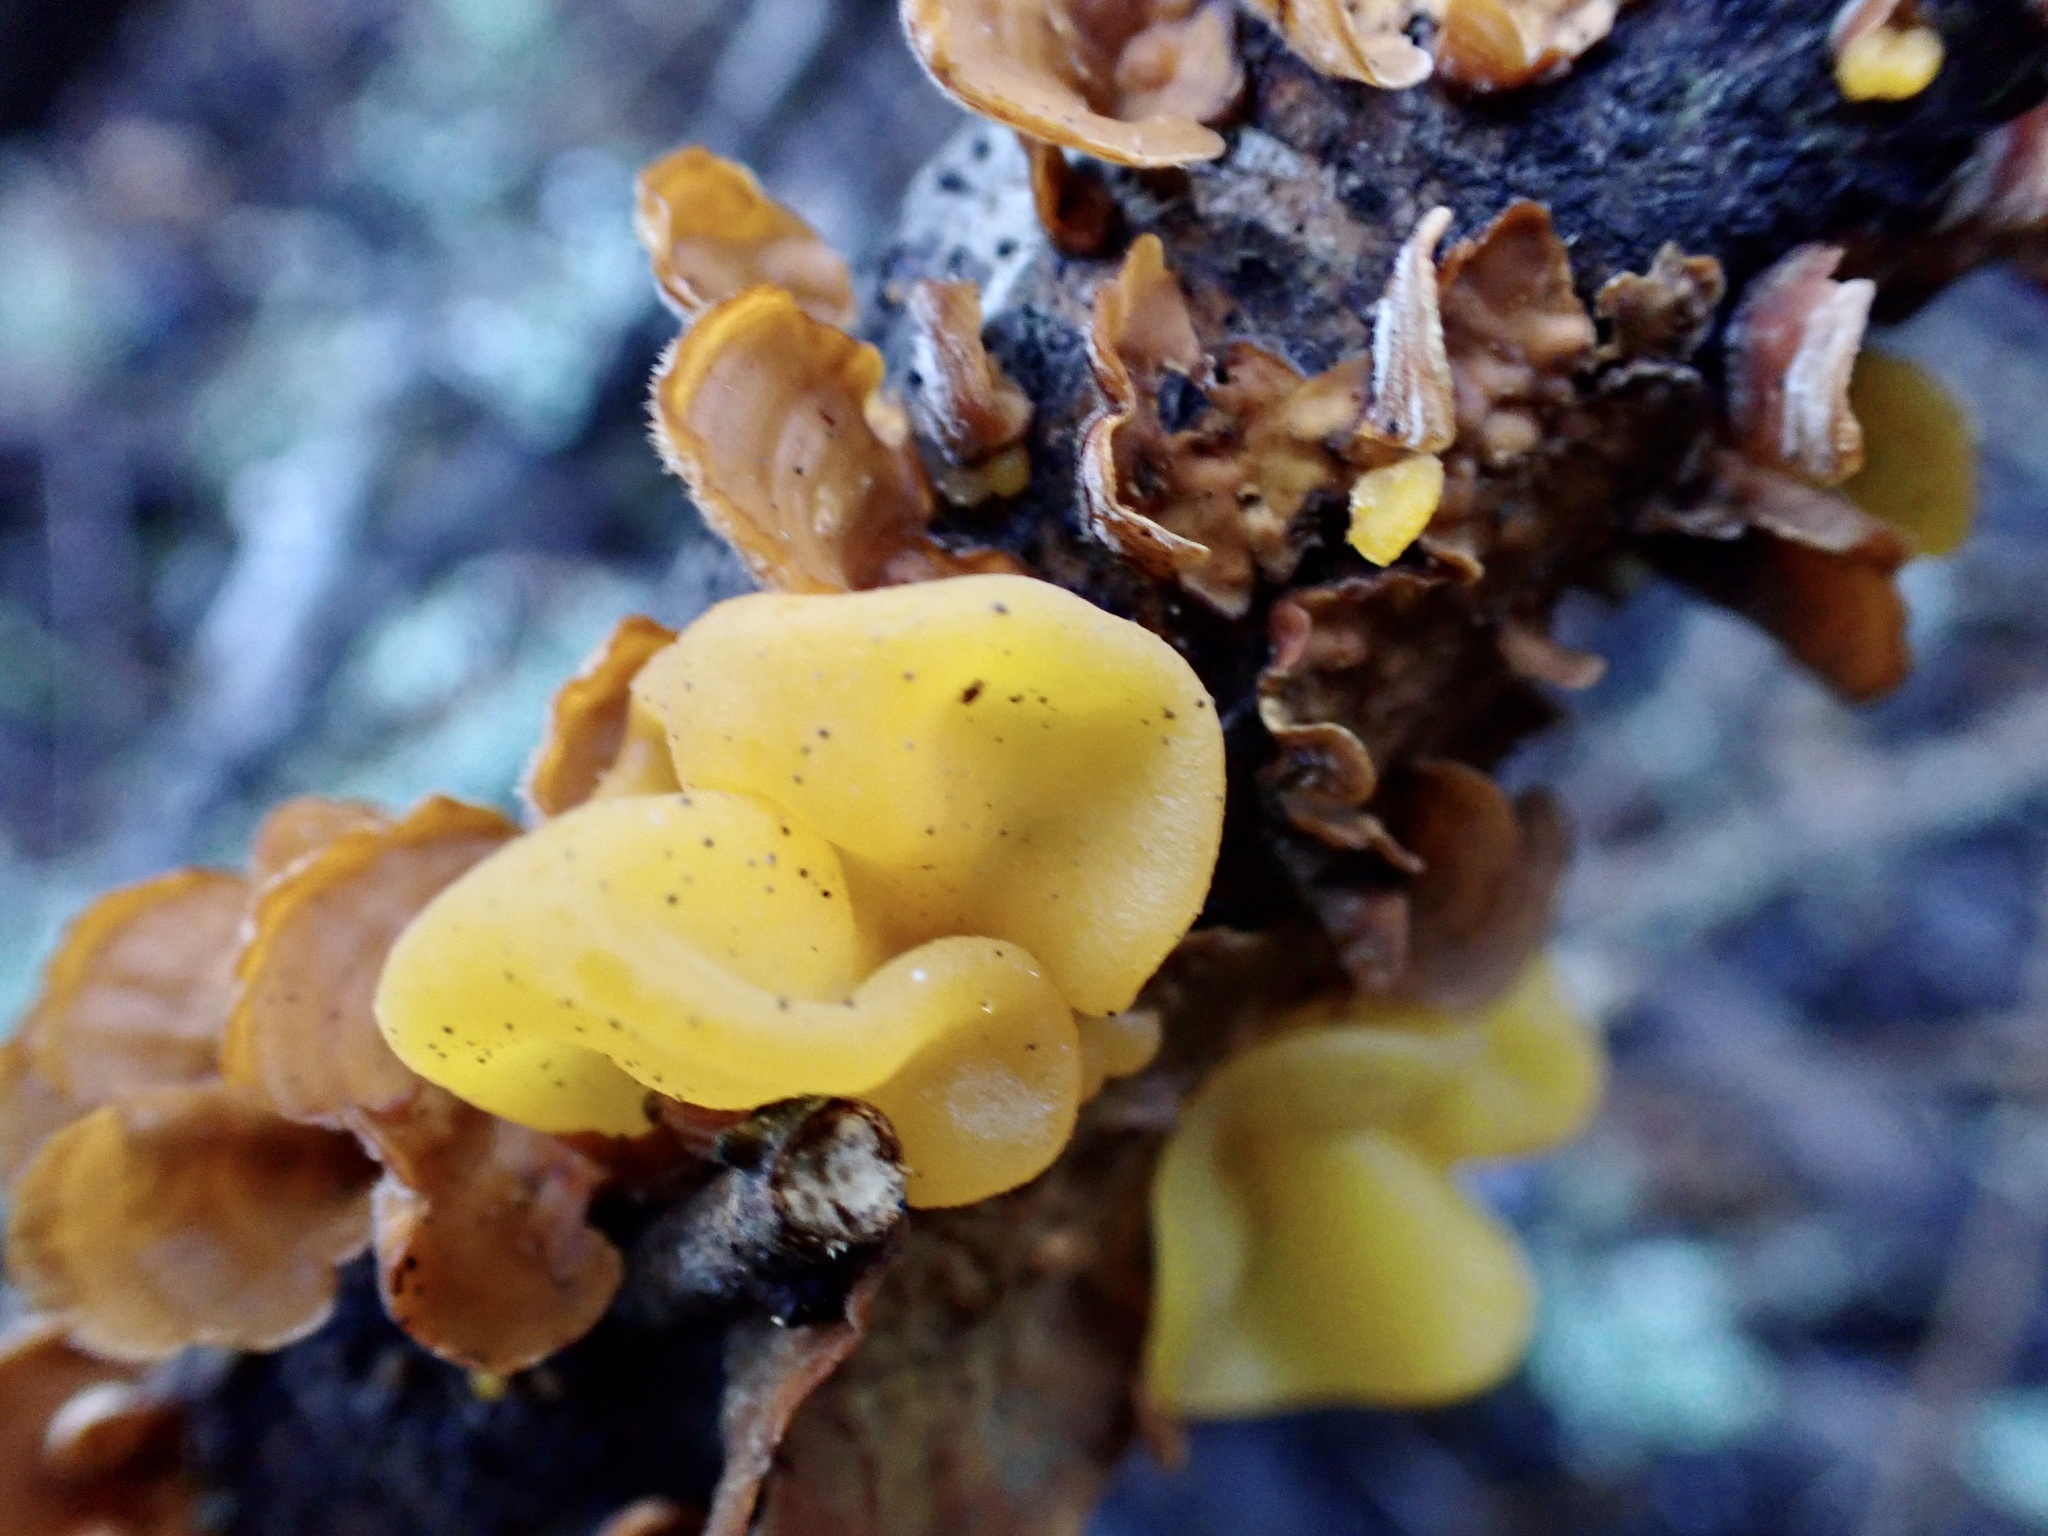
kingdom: Fungi
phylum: Basidiomycota
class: Tremellomycetes
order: Tremellales
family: Naemateliaceae
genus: Naematelia
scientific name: Naematelia aurantia
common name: Golden ear
